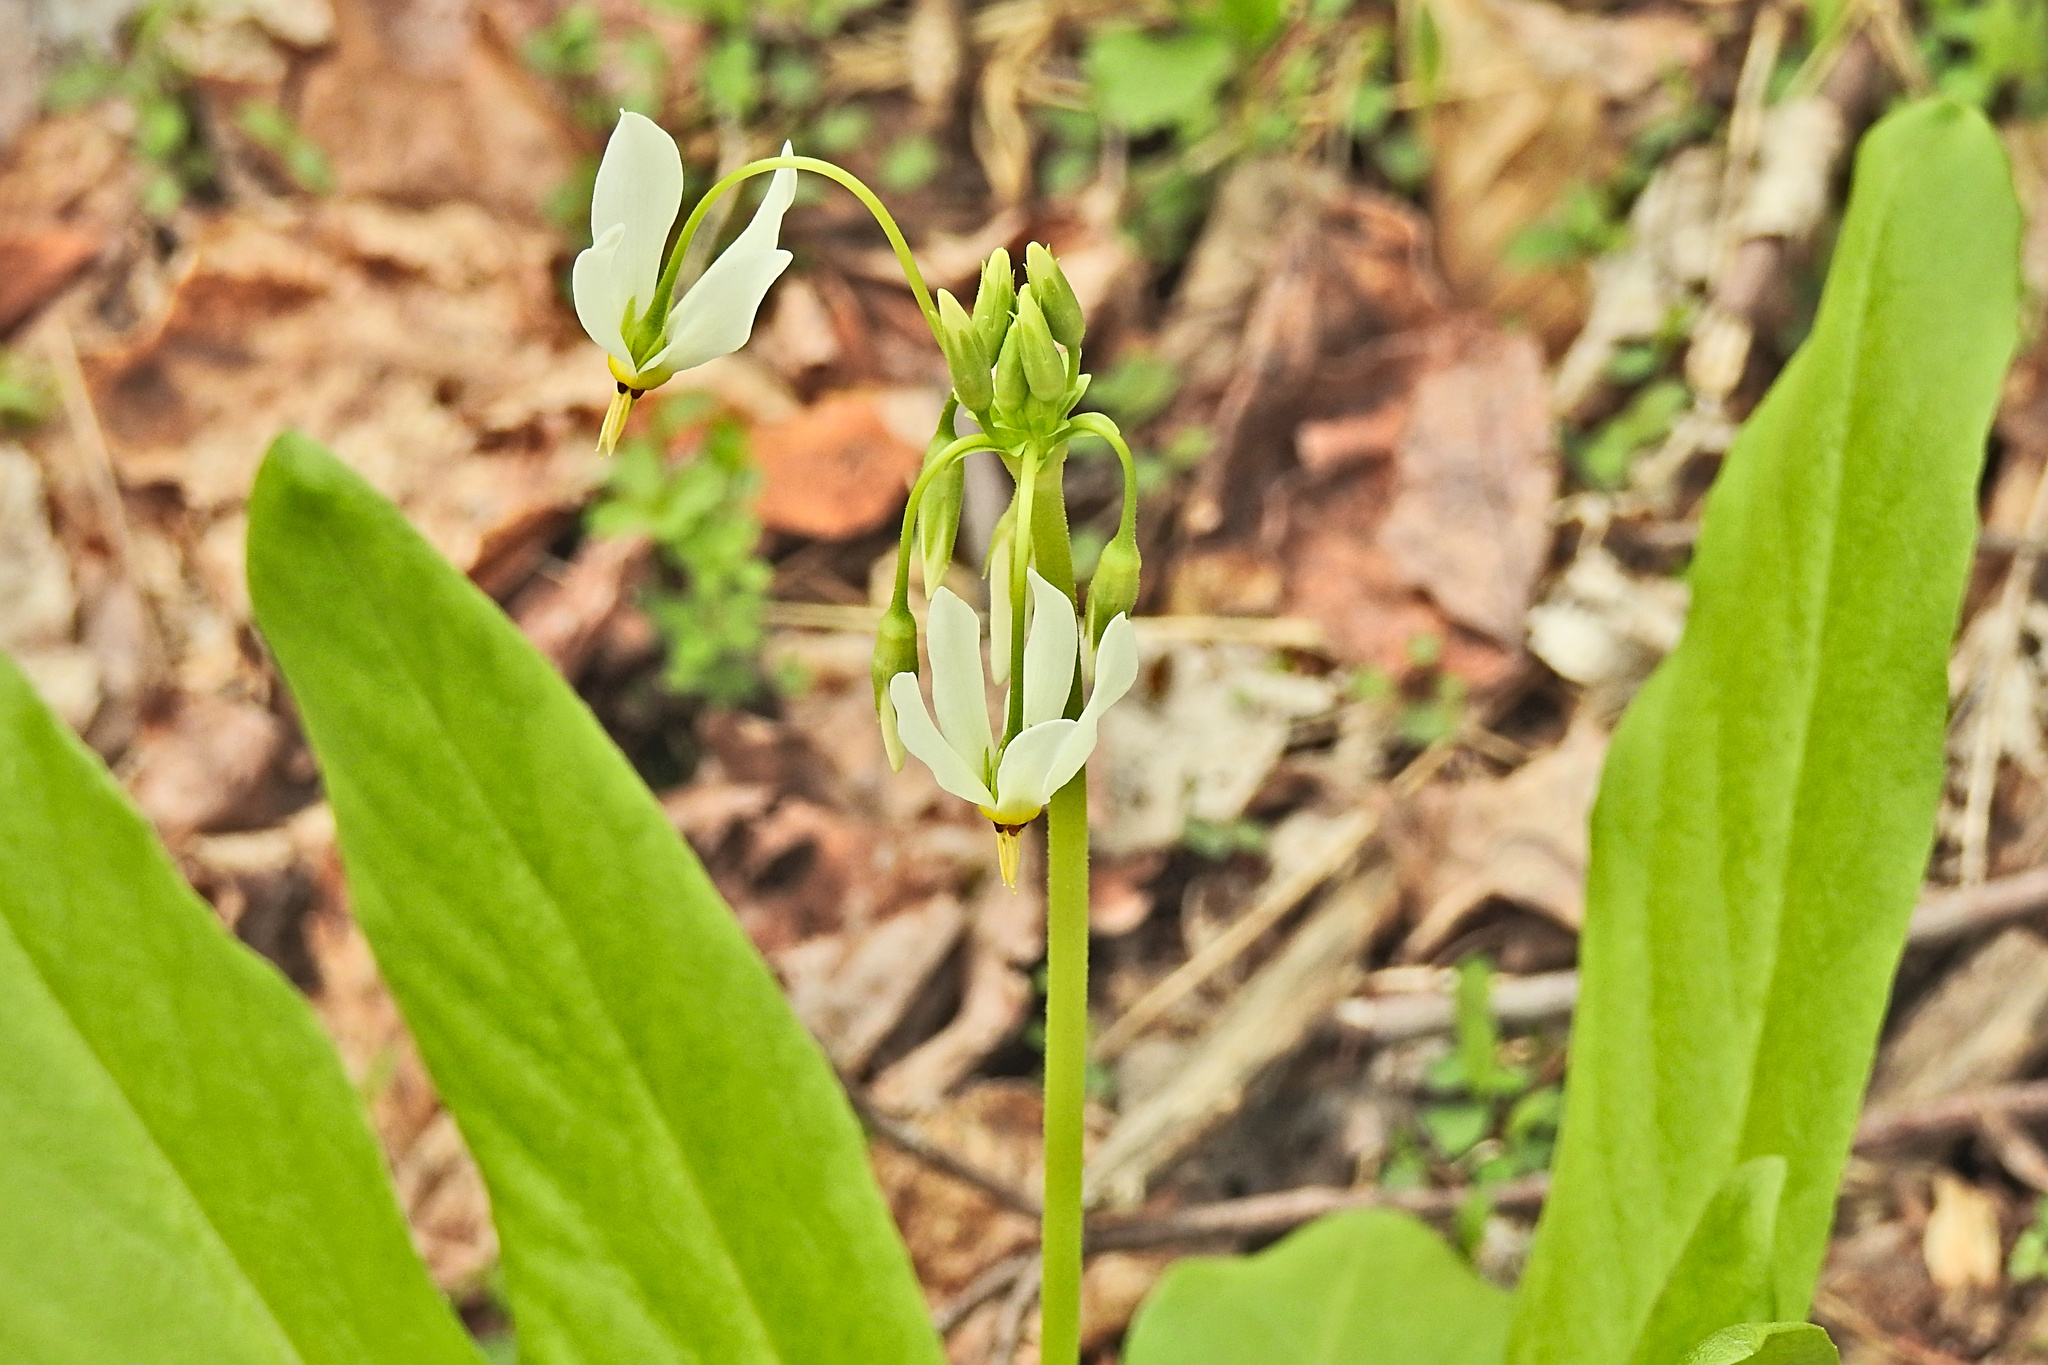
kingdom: Plantae
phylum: Tracheophyta
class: Magnoliopsida
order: Ericales
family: Primulaceae
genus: Dodecatheon
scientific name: Dodecatheon meadia
